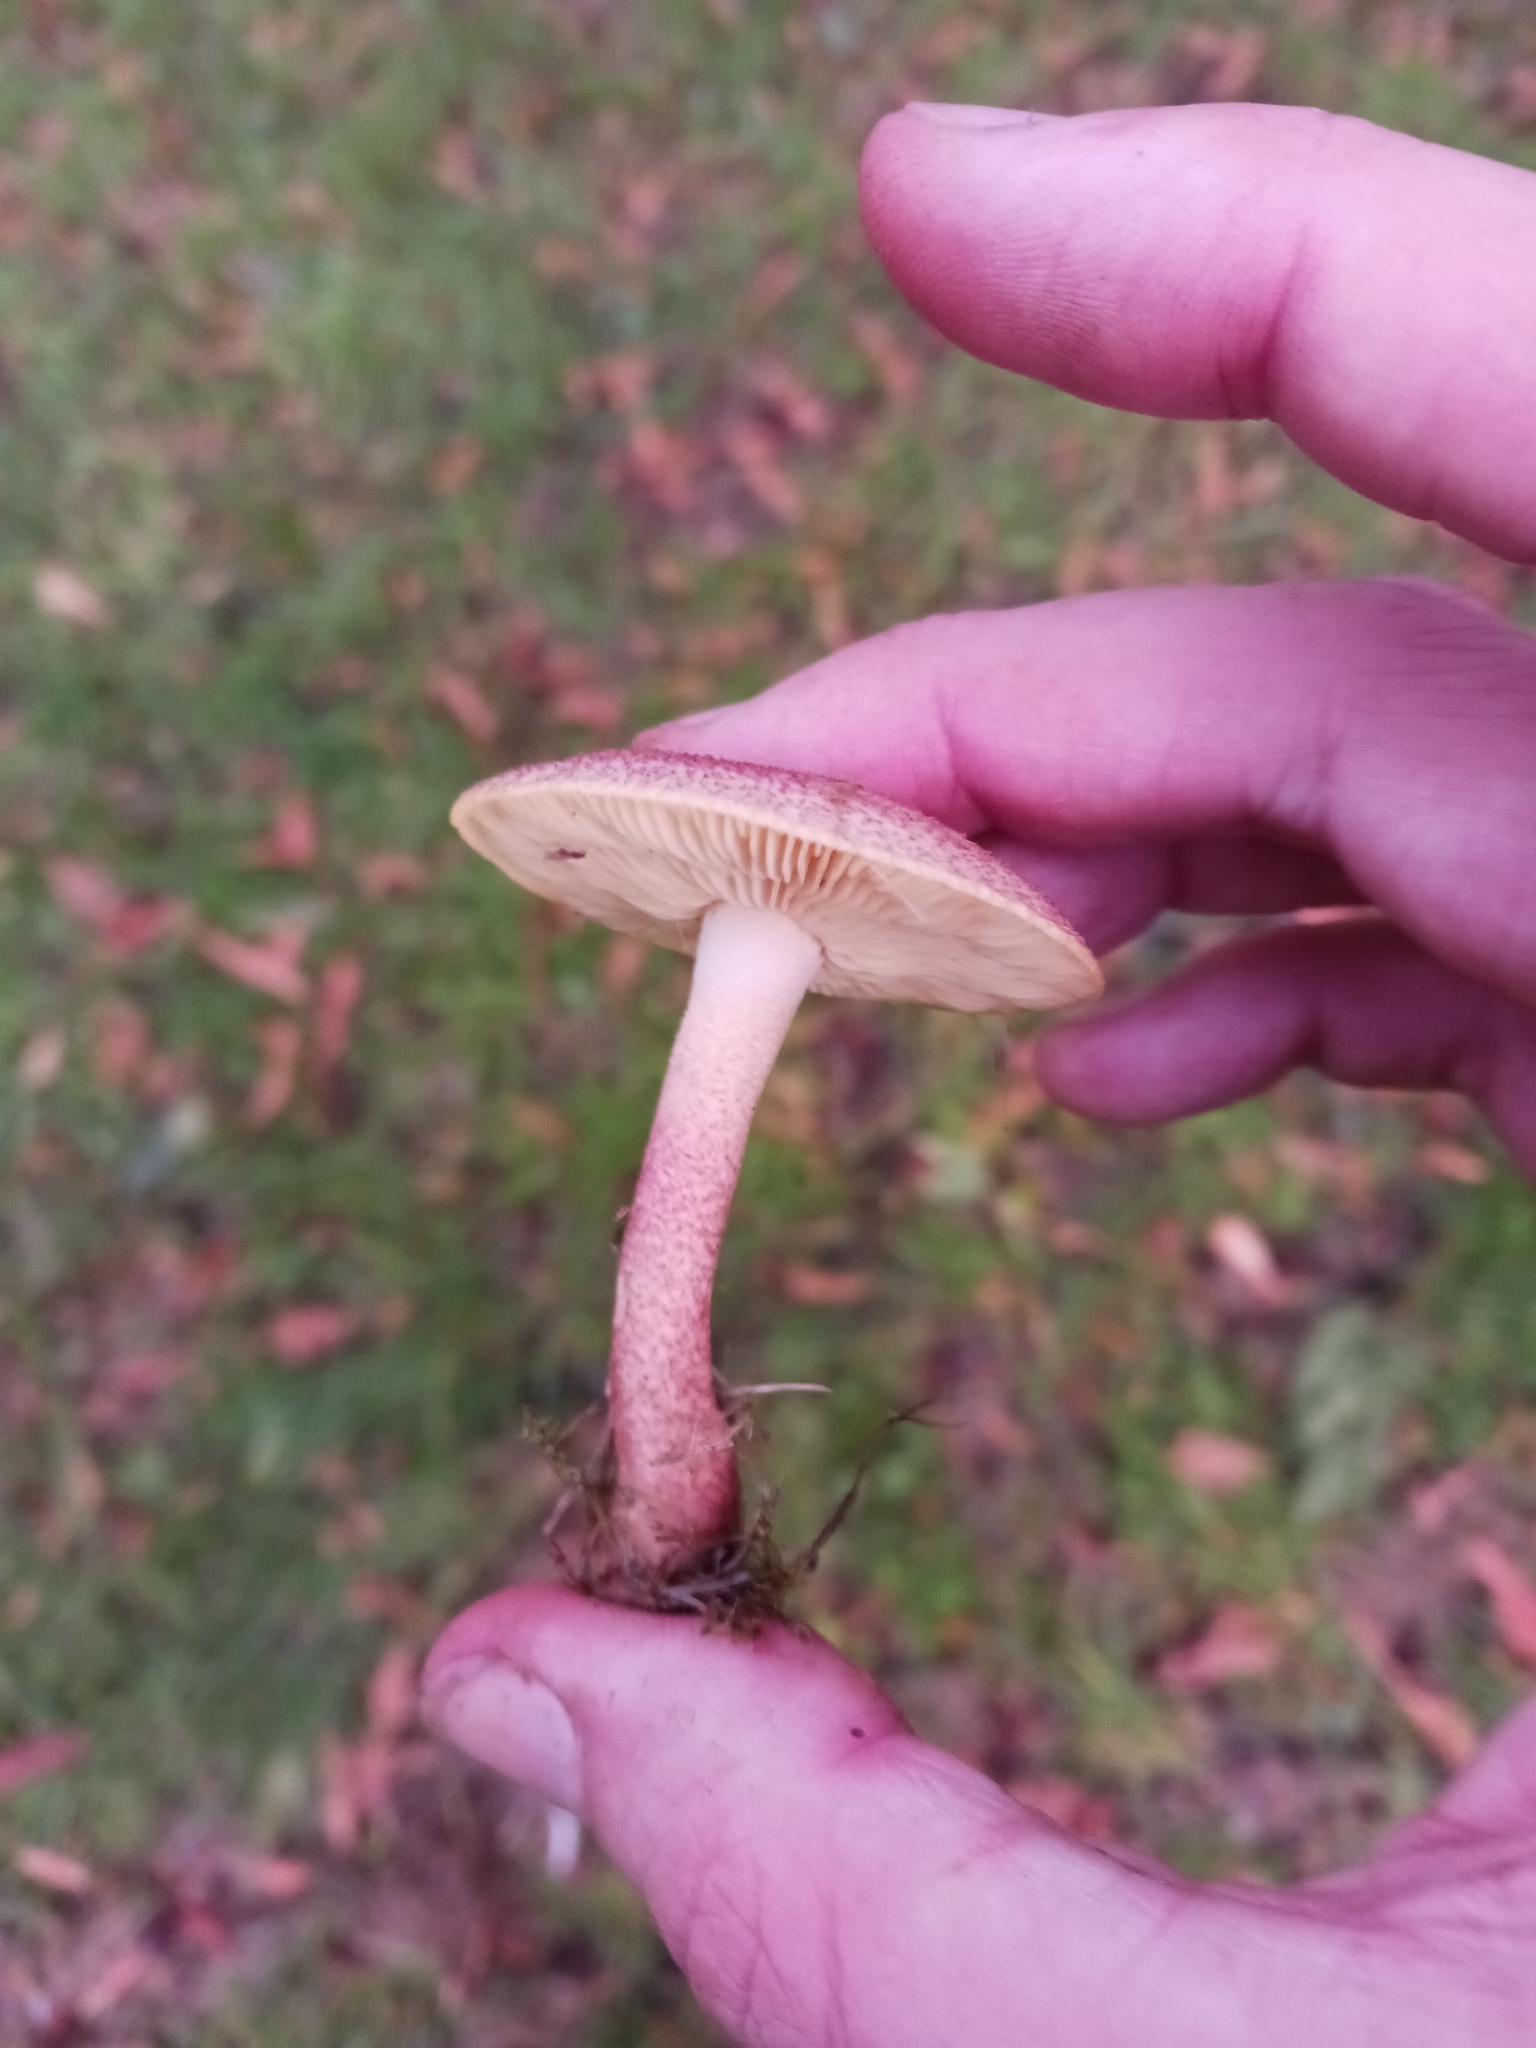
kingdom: Fungi
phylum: Basidiomycota
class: Agaricomycetes
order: Agaricales
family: Tricholomataceae
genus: Tricholomopsis
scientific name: Tricholomopsis rutilans
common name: Plums and custard
